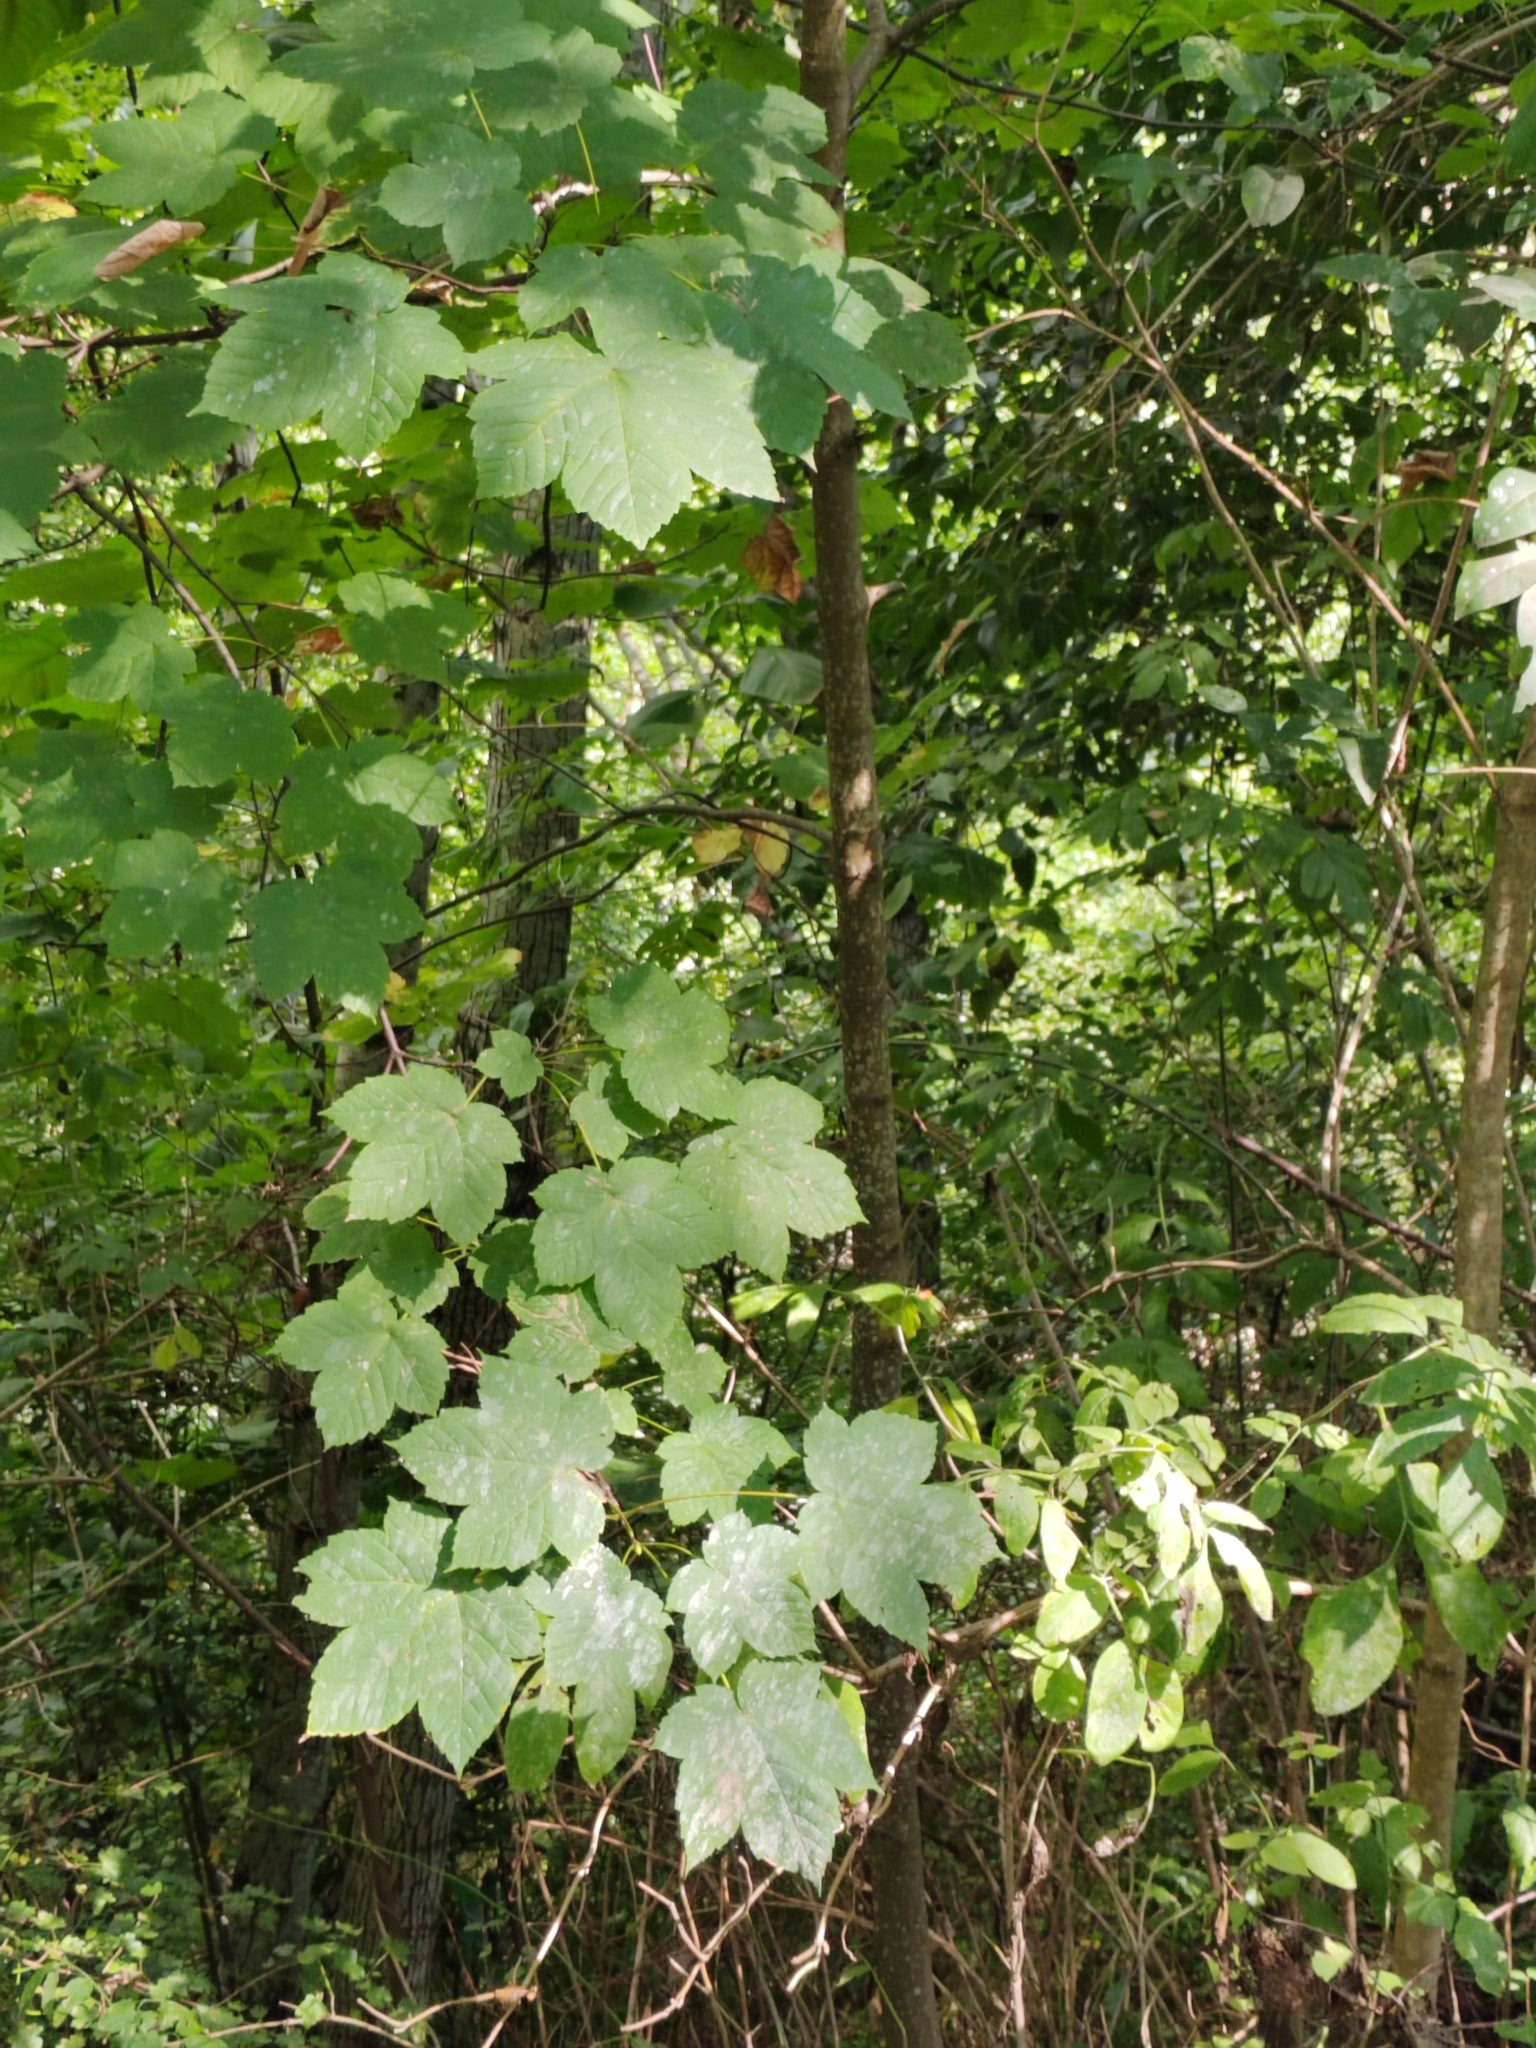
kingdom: Plantae
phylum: Tracheophyta
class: Magnoliopsida
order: Sapindales
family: Sapindaceae
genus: Acer
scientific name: Acer pseudoplatanus
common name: Sycamore
